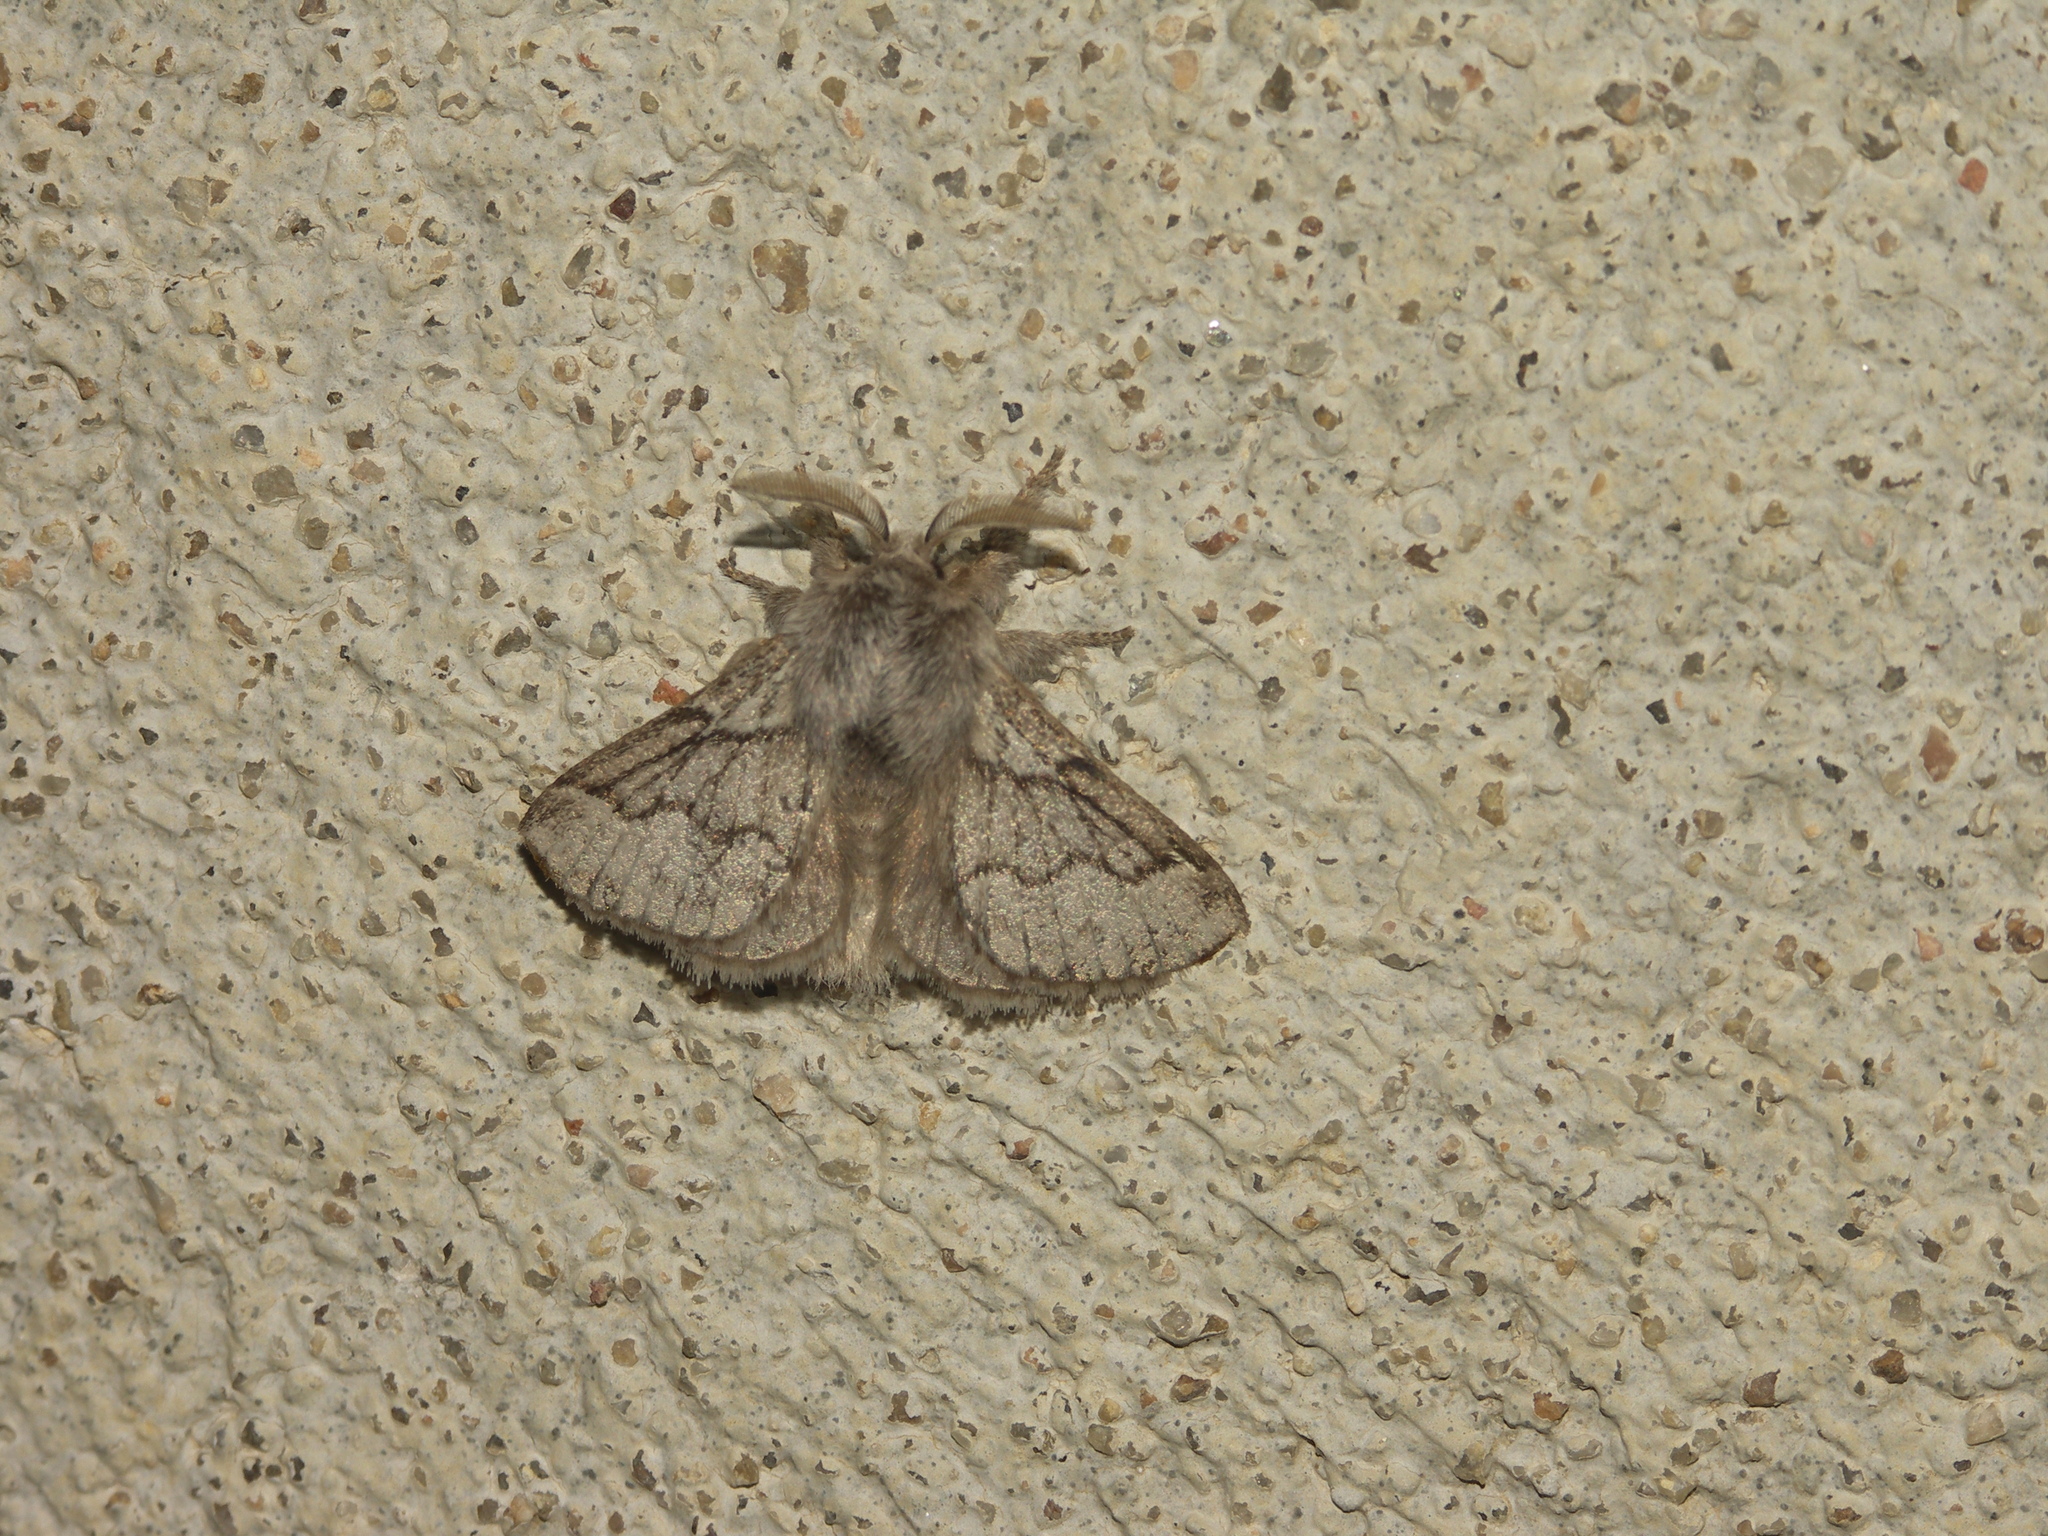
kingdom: Animalia
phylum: Arthropoda
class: Insecta
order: Lepidoptera
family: Lasiocampidae
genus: Trichiura
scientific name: Trichiura crataegi
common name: Pale eggar
